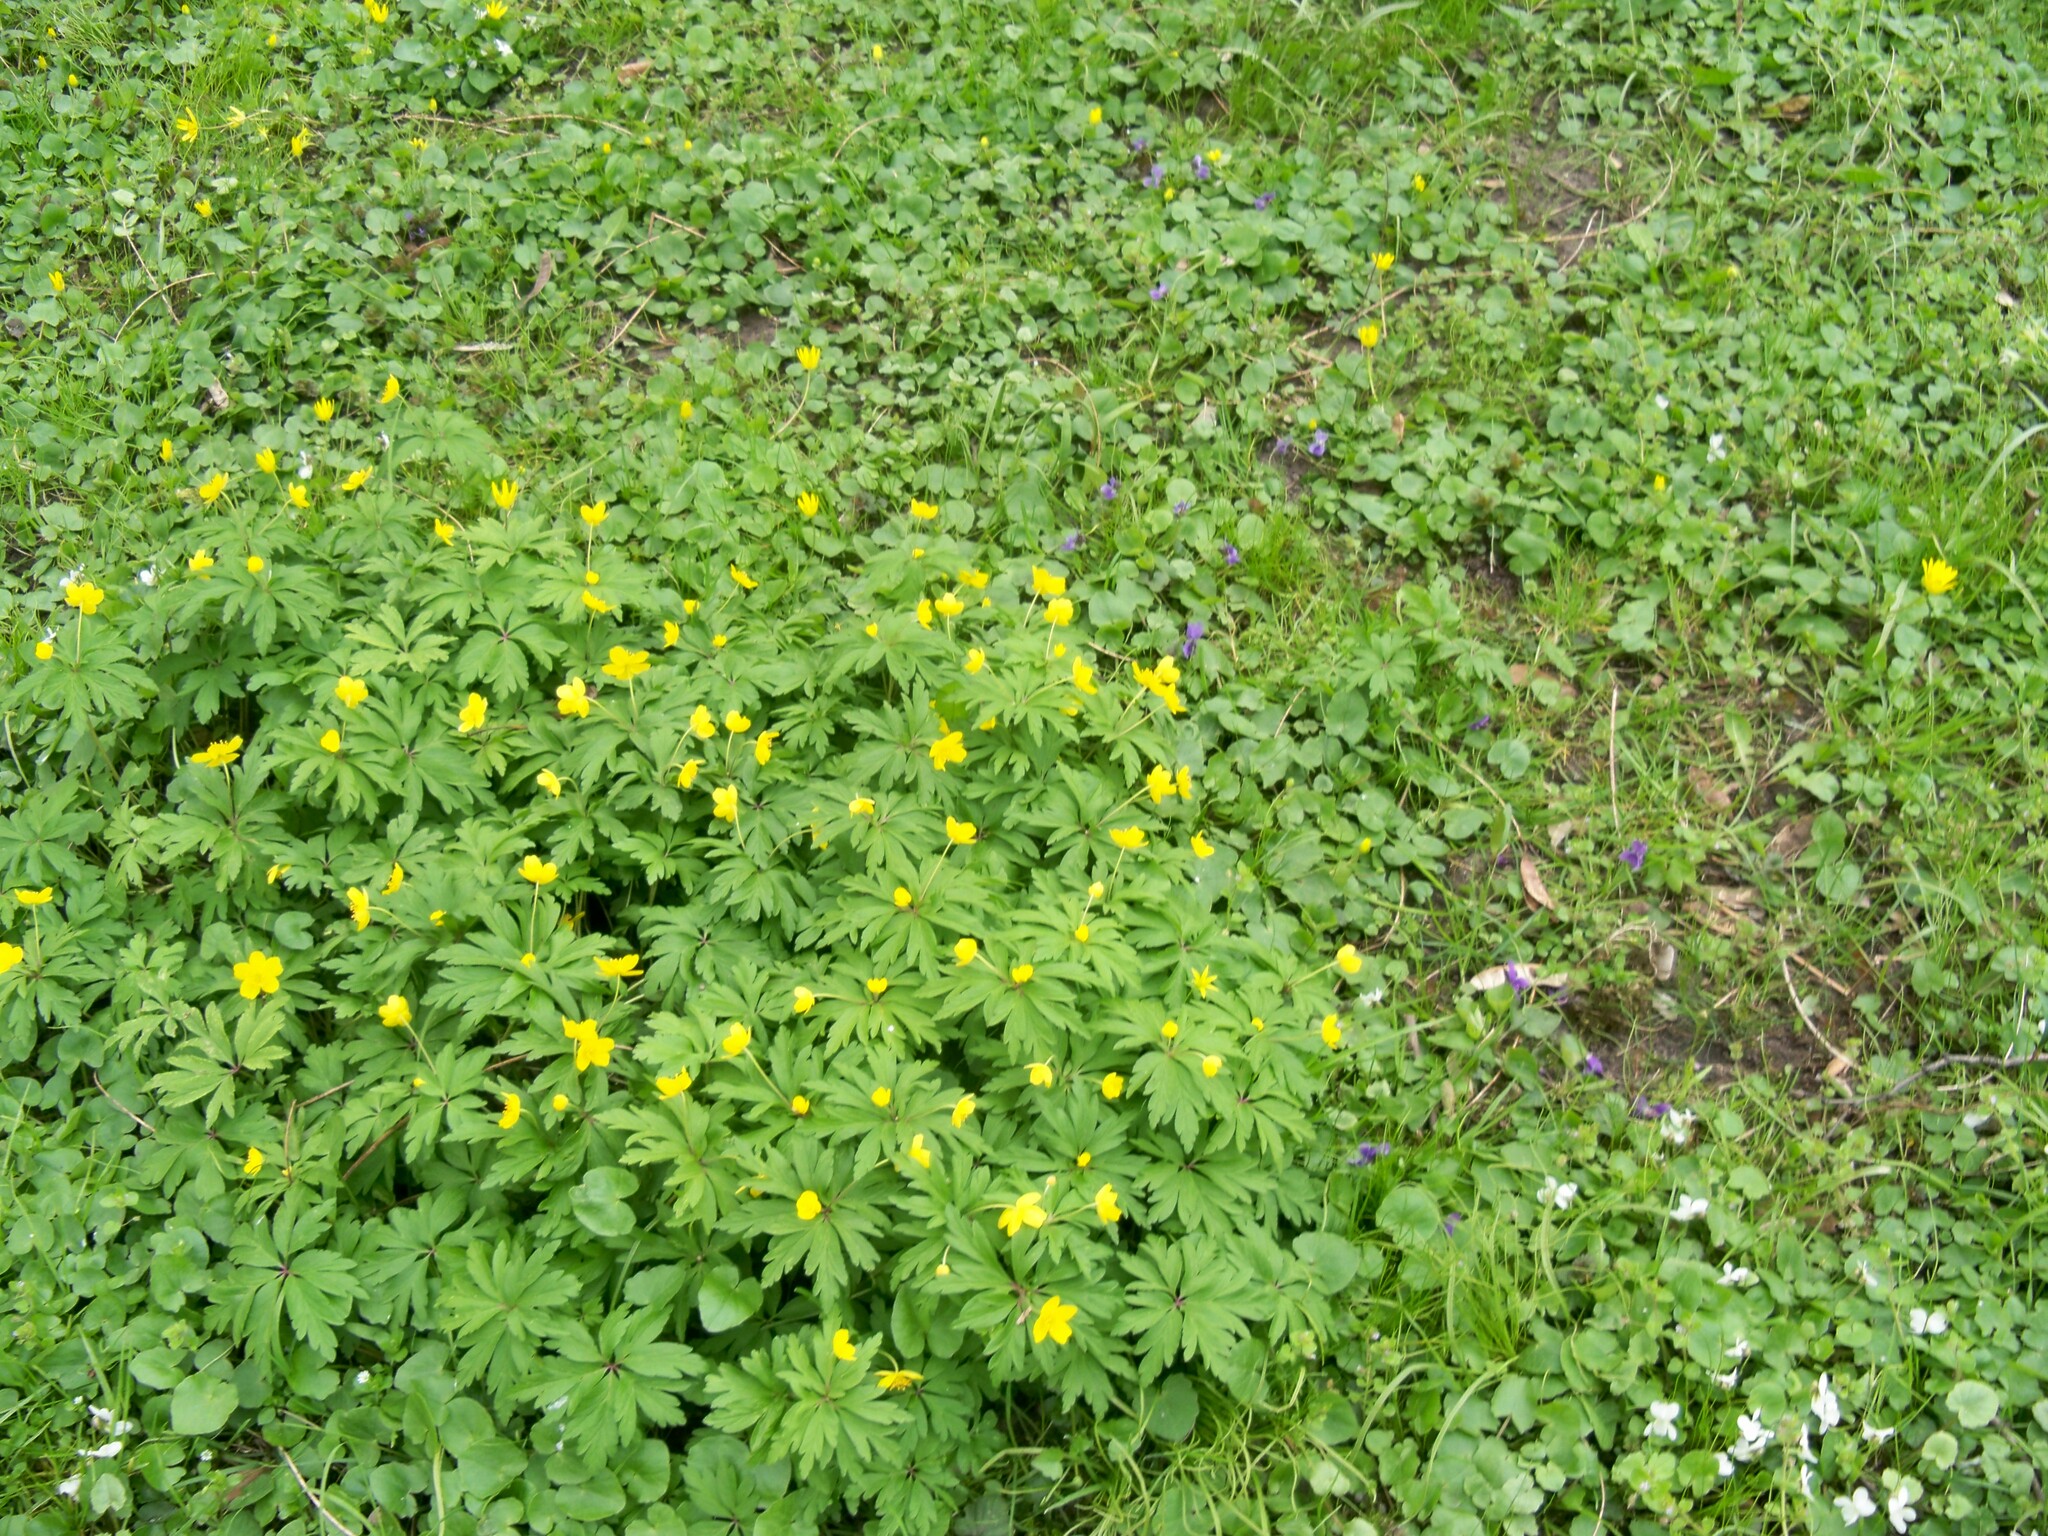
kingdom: Plantae
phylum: Tracheophyta
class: Magnoliopsida
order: Ranunculales
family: Ranunculaceae
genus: Anemone
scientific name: Anemone ranunculoides
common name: Yellow anemone
